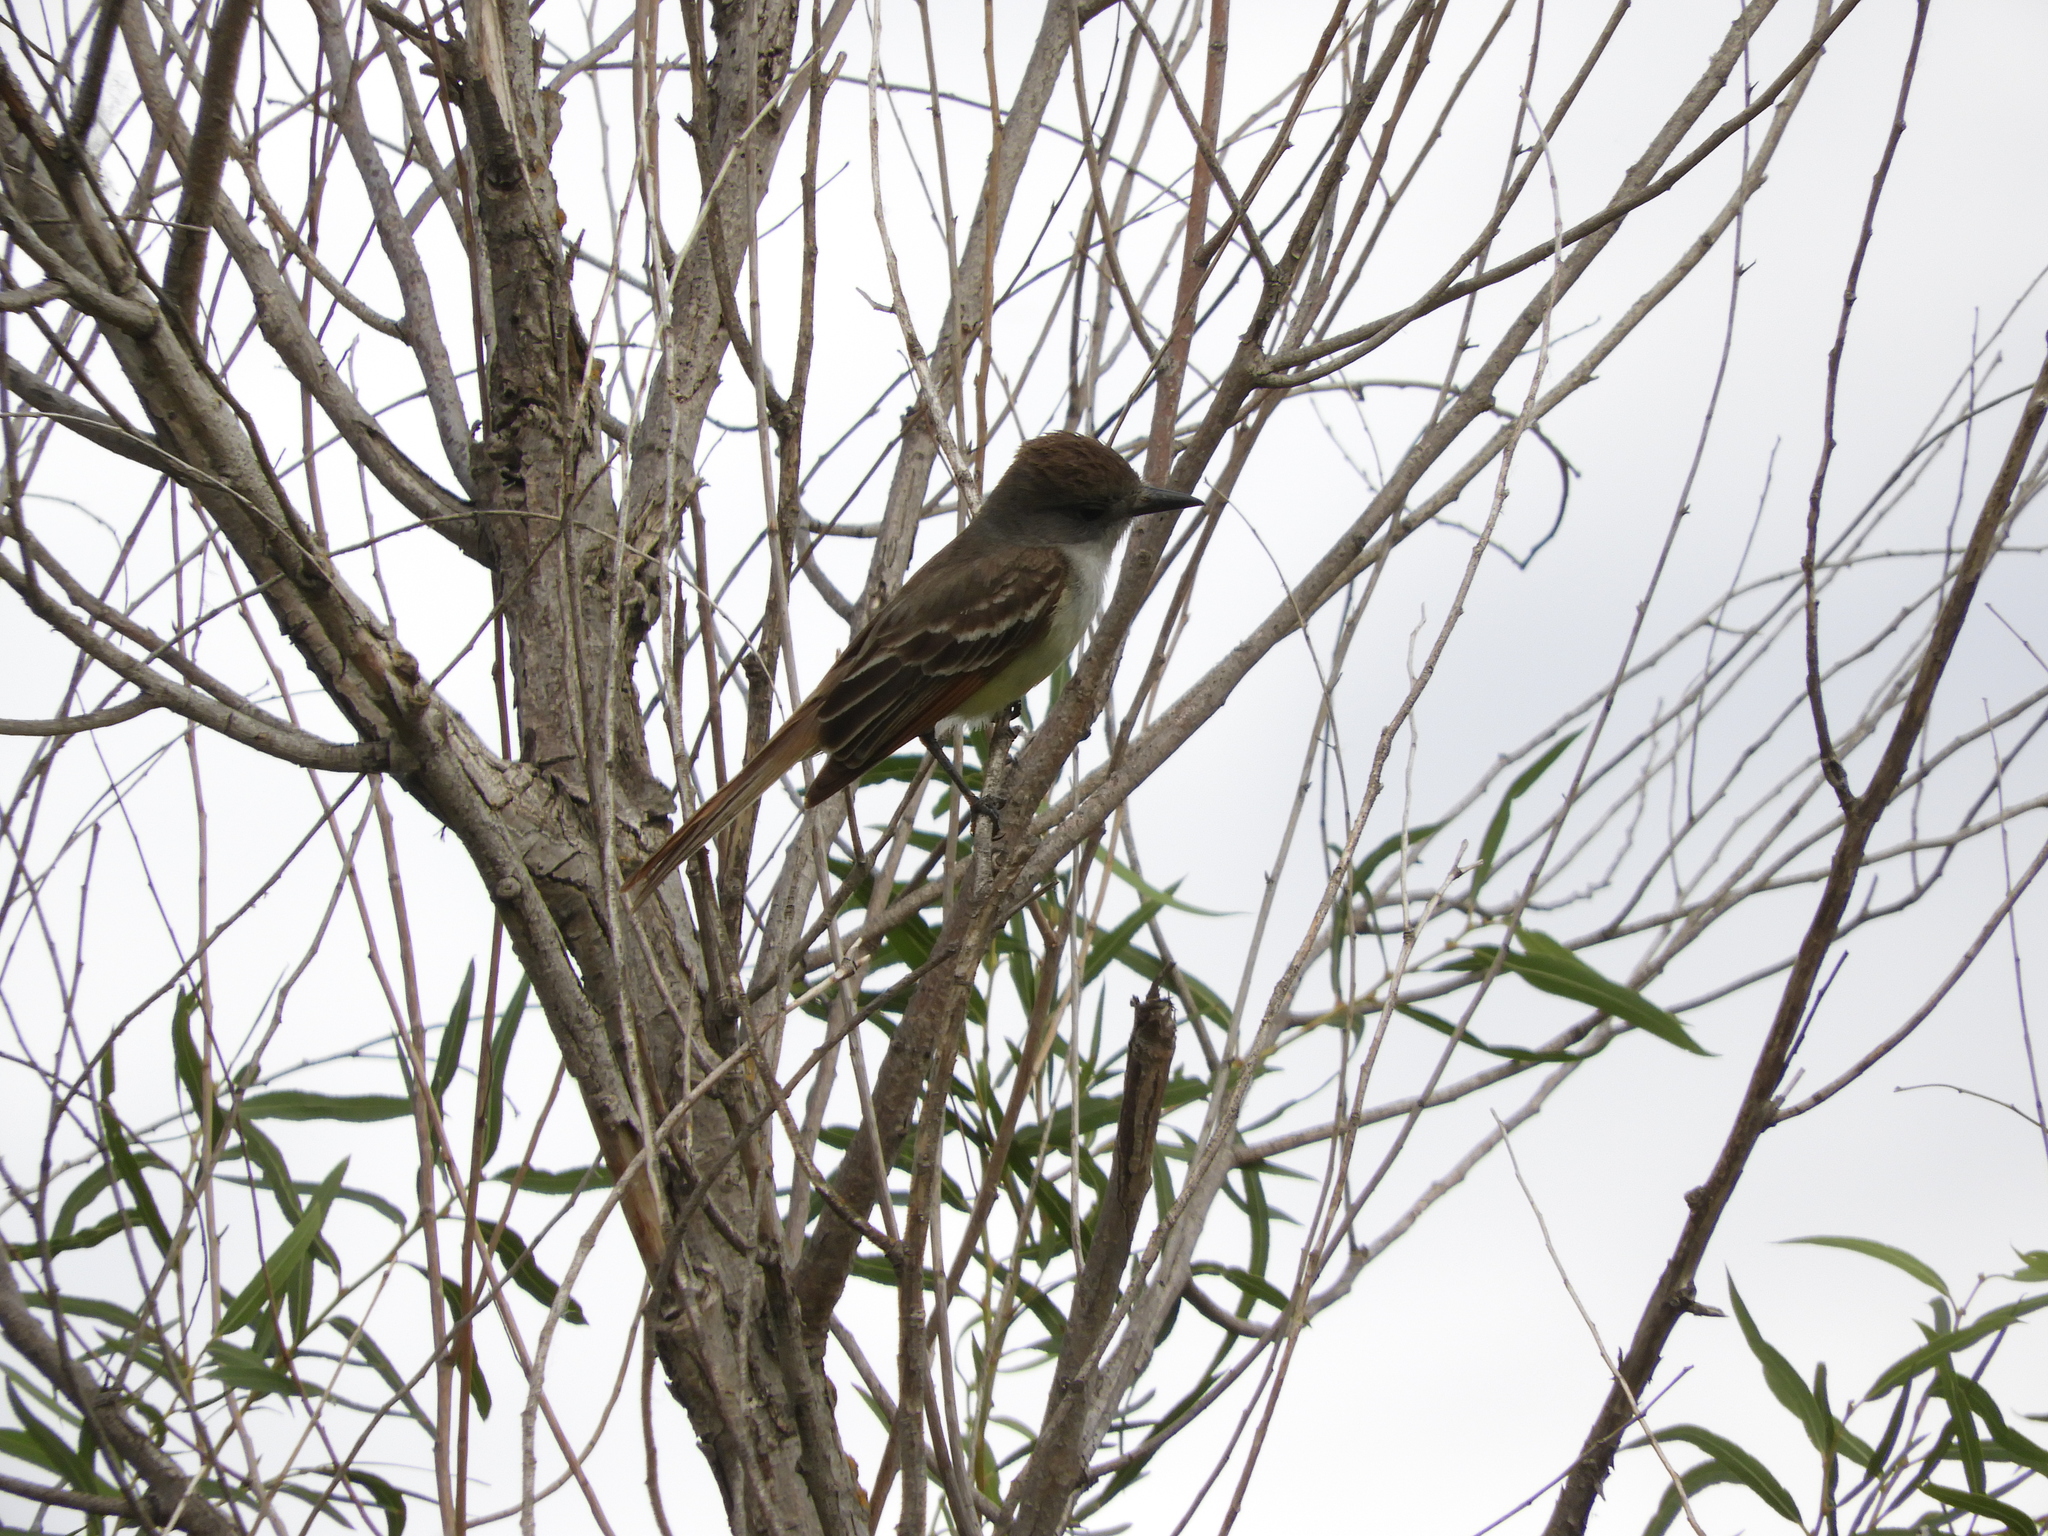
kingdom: Animalia
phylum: Chordata
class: Aves
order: Passeriformes
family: Tyrannidae
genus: Myiarchus
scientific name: Myiarchus cinerascens
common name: Ash-throated flycatcher
